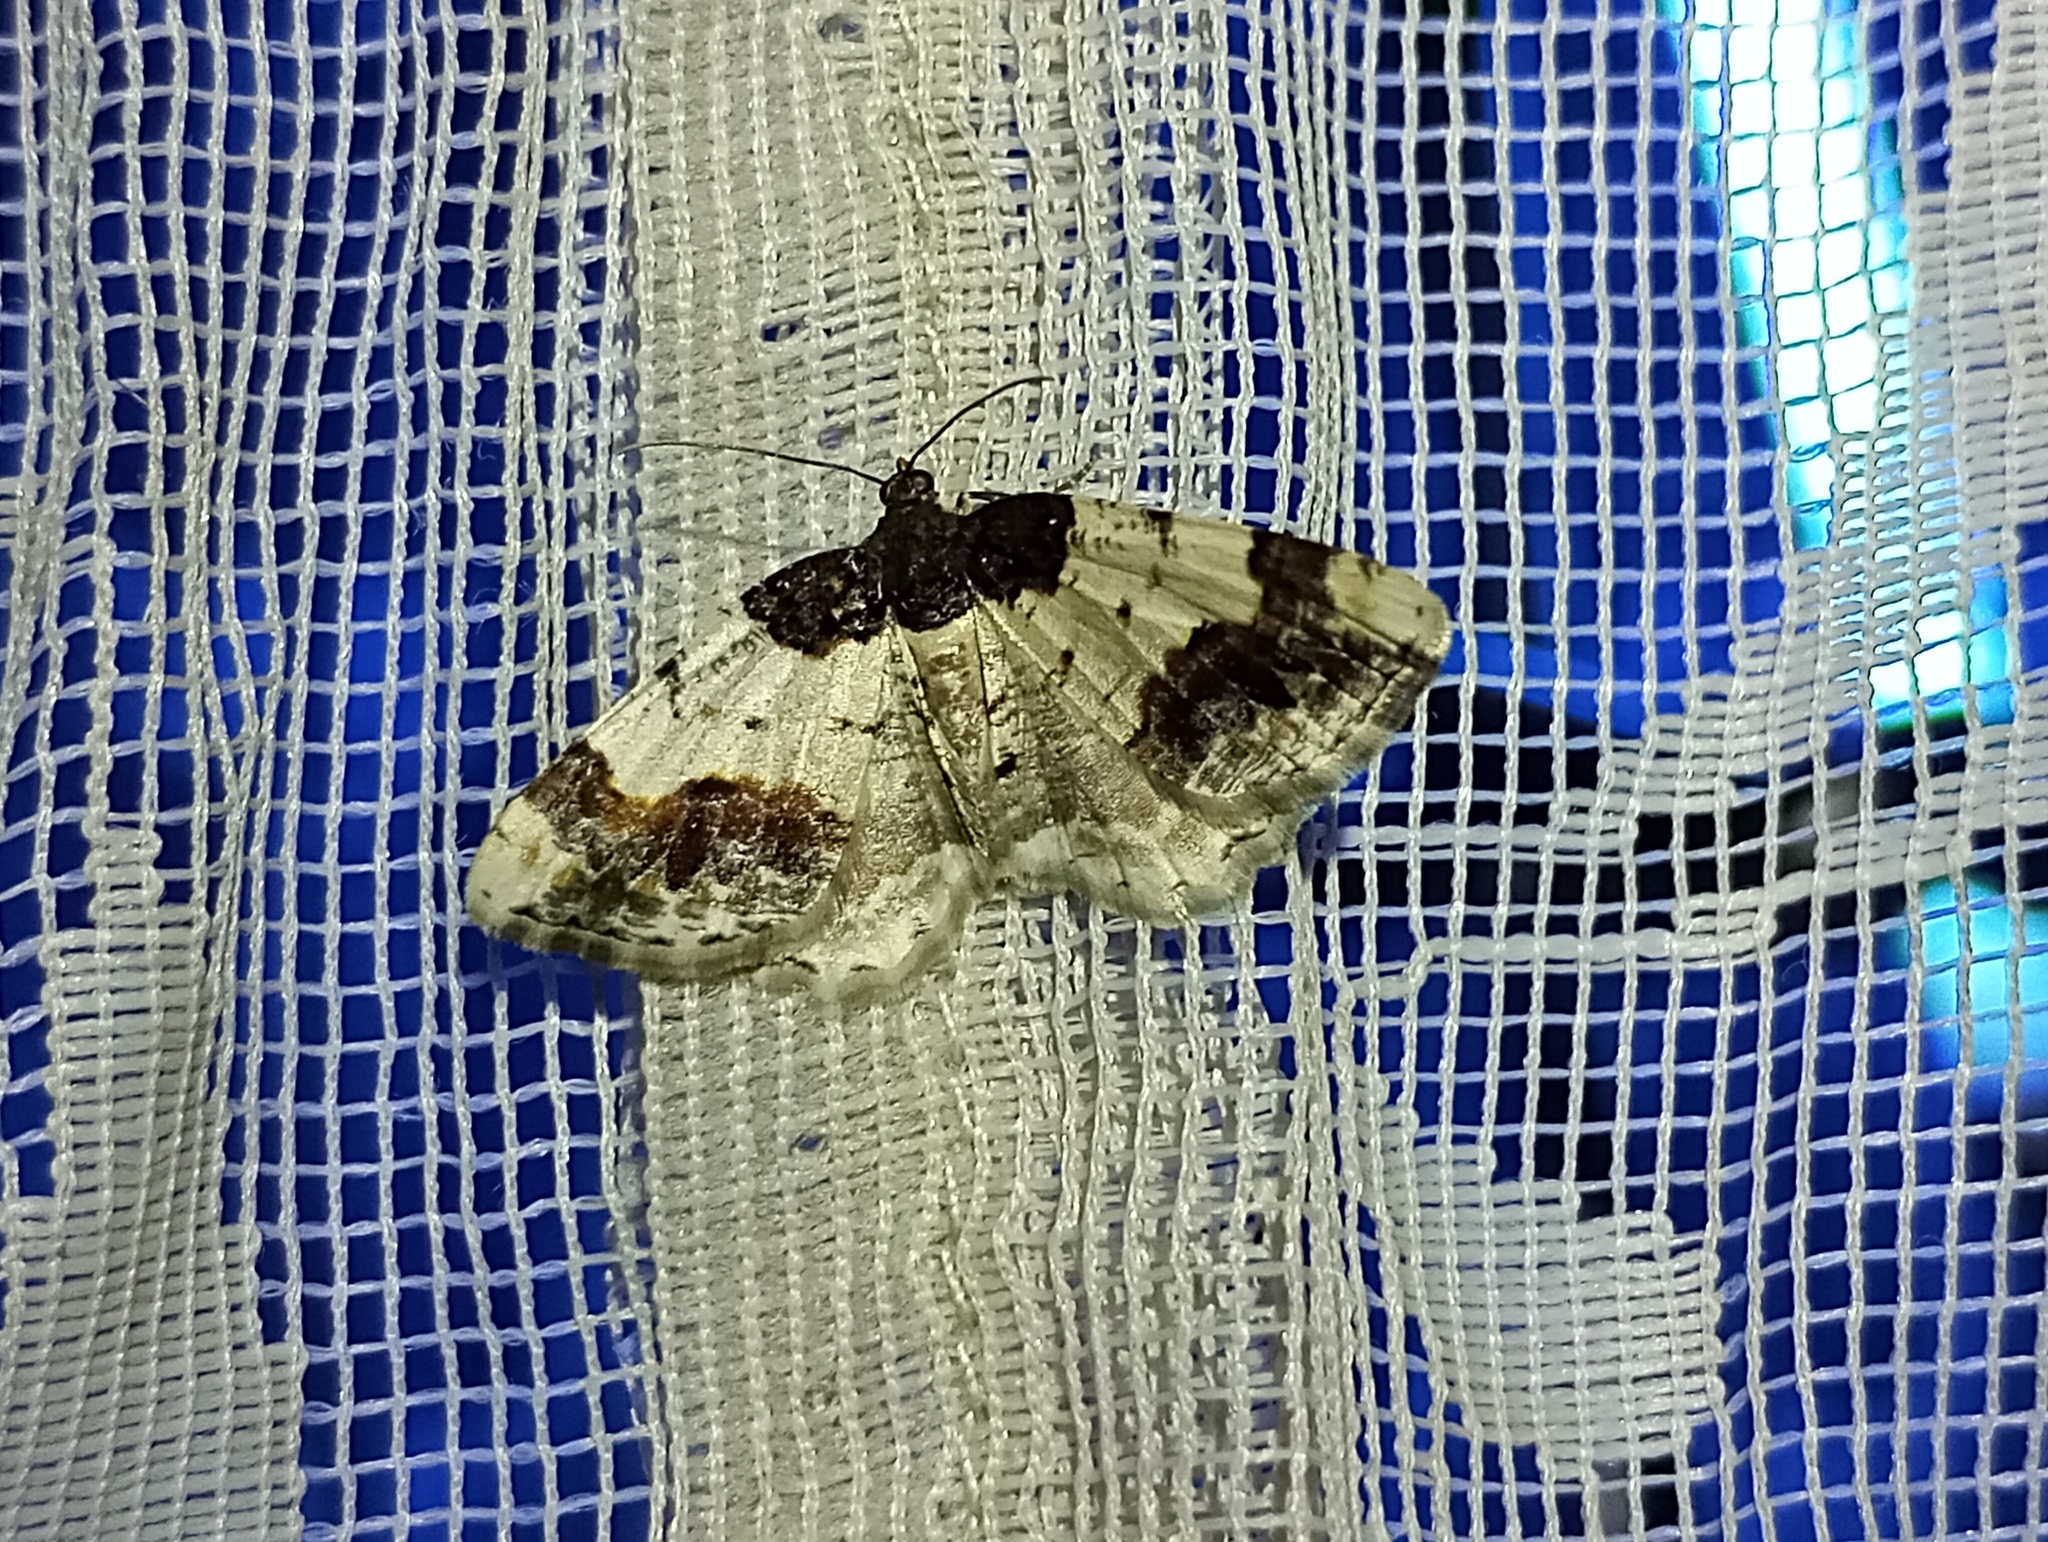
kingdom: Animalia
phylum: Arthropoda
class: Insecta
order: Lepidoptera
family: Geometridae
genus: Ligdia
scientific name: Ligdia adustata
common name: Scorched carpet
